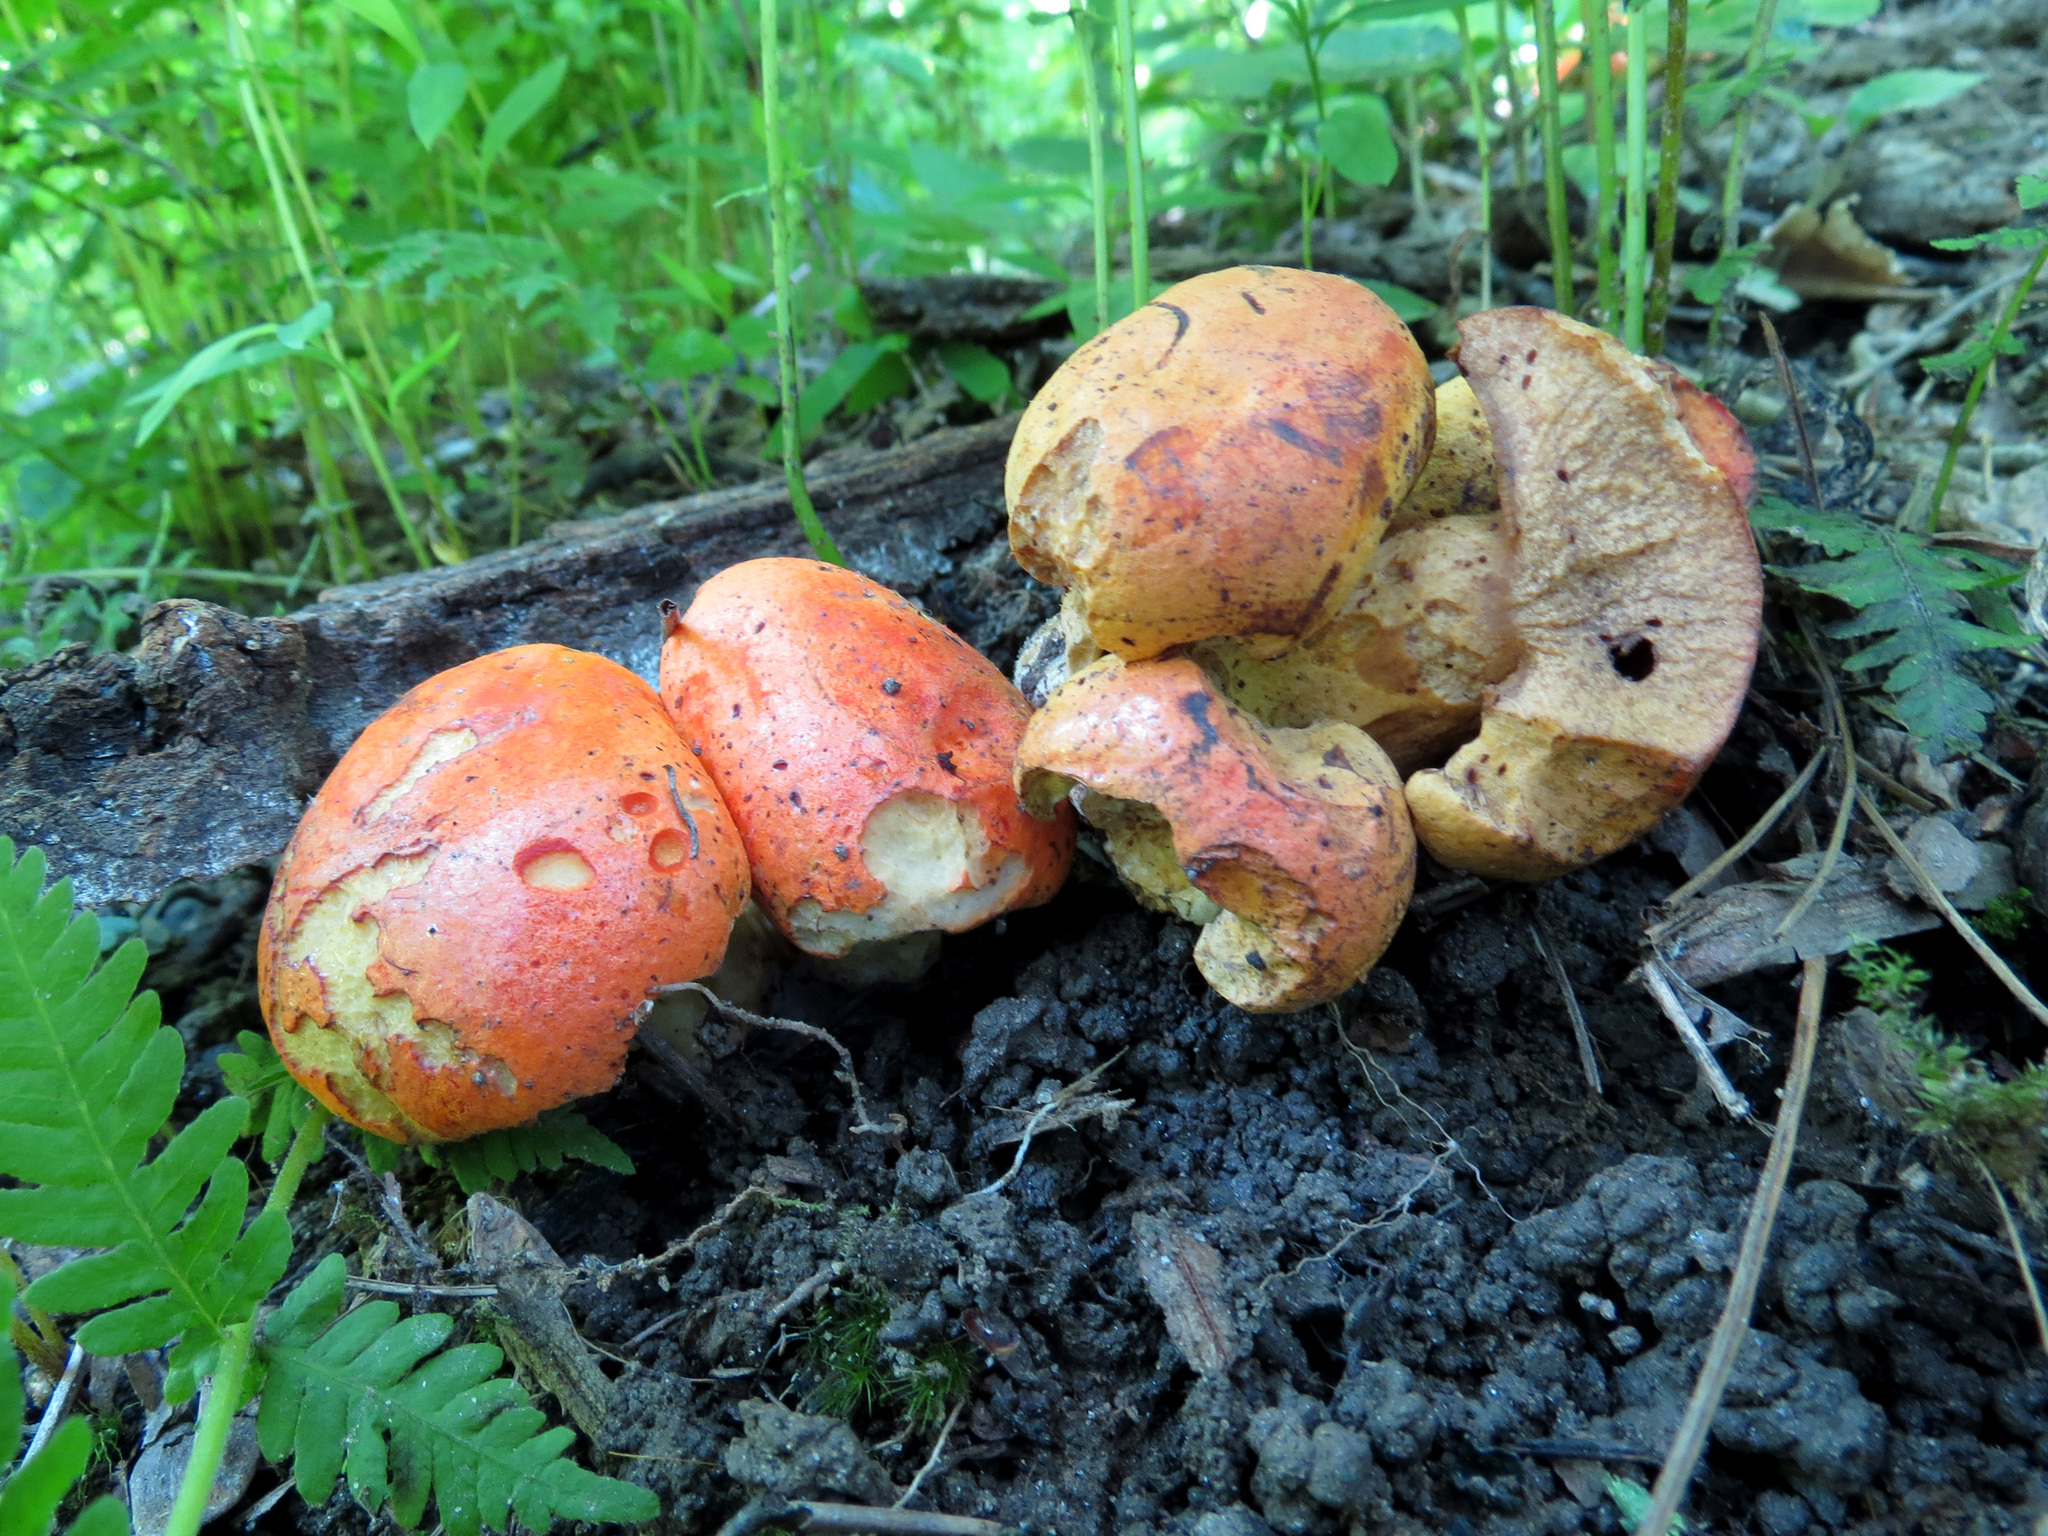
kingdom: Fungi
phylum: Basidiomycota
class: Agaricomycetes
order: Boletales
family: Boletaceae
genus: Tylopilus
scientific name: Tylopilus balloui
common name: Burnt-orange bolete
